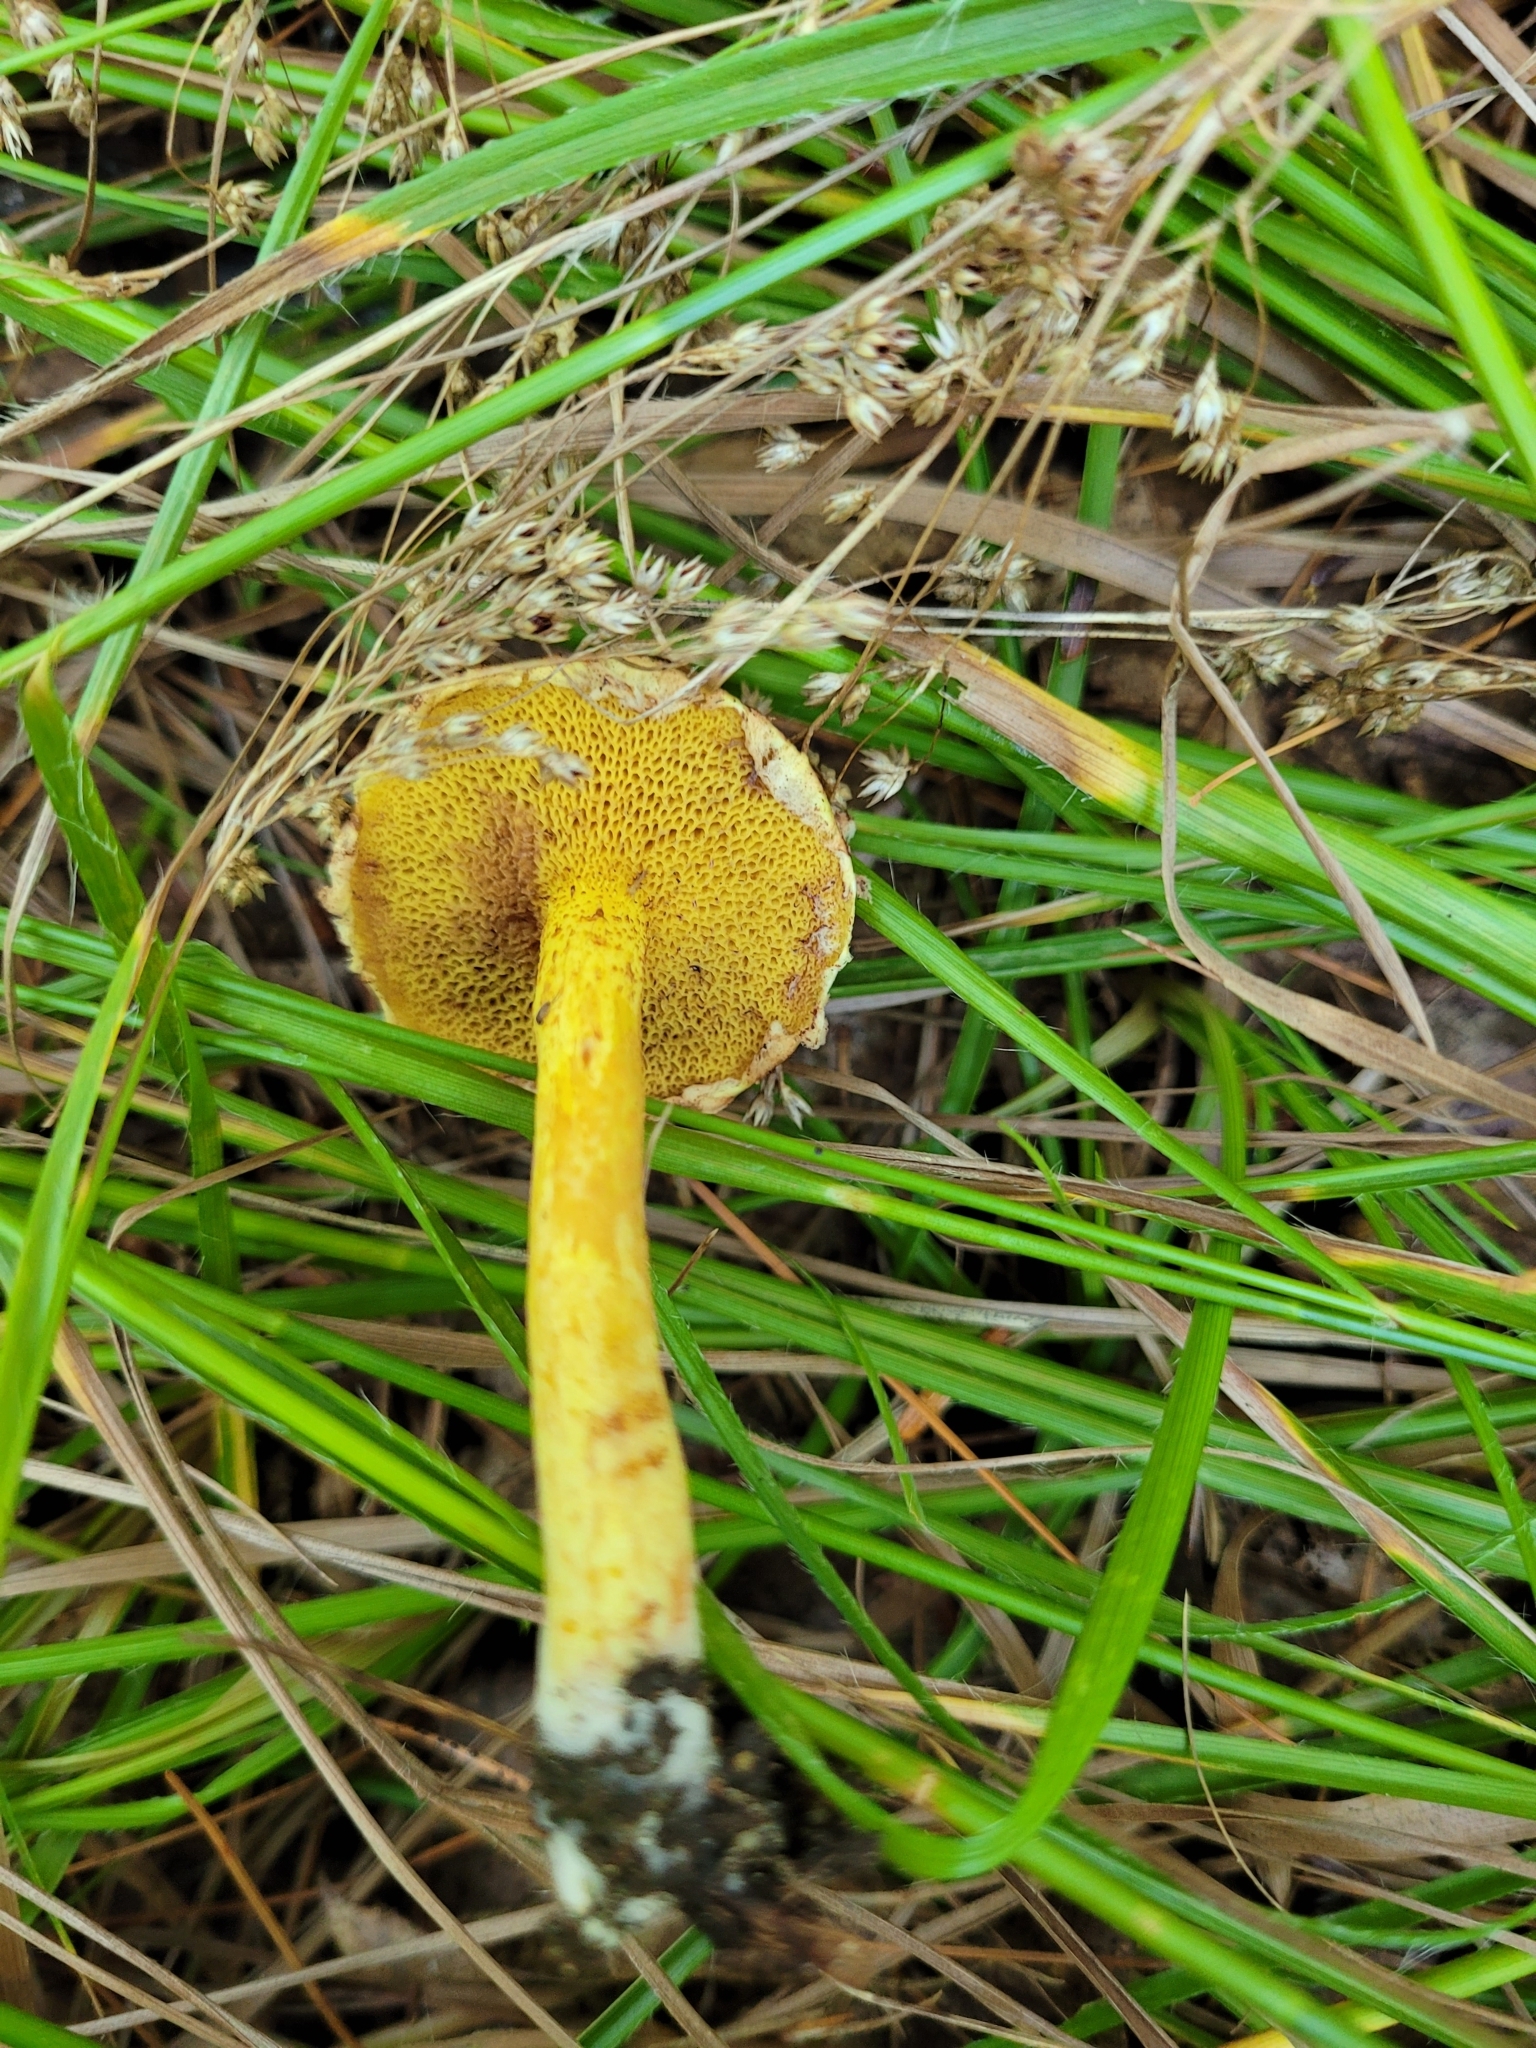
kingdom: Fungi
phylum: Basidiomycota
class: Agaricomycetes
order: Boletales
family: Suillaceae
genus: Suillus
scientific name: Suillus americanus
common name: Chicken fat mushroom
